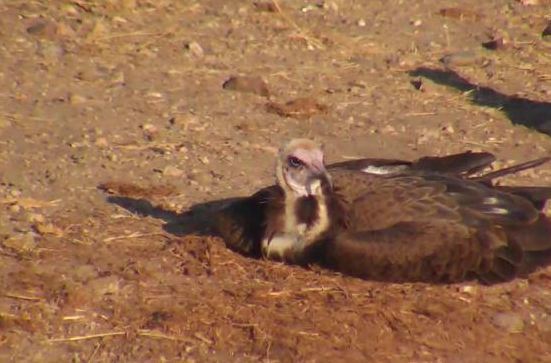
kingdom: Animalia
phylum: Chordata
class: Aves
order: Accipitriformes
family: Accipitridae
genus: Necrosyrtes
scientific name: Necrosyrtes monachus
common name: Hooded vulture
